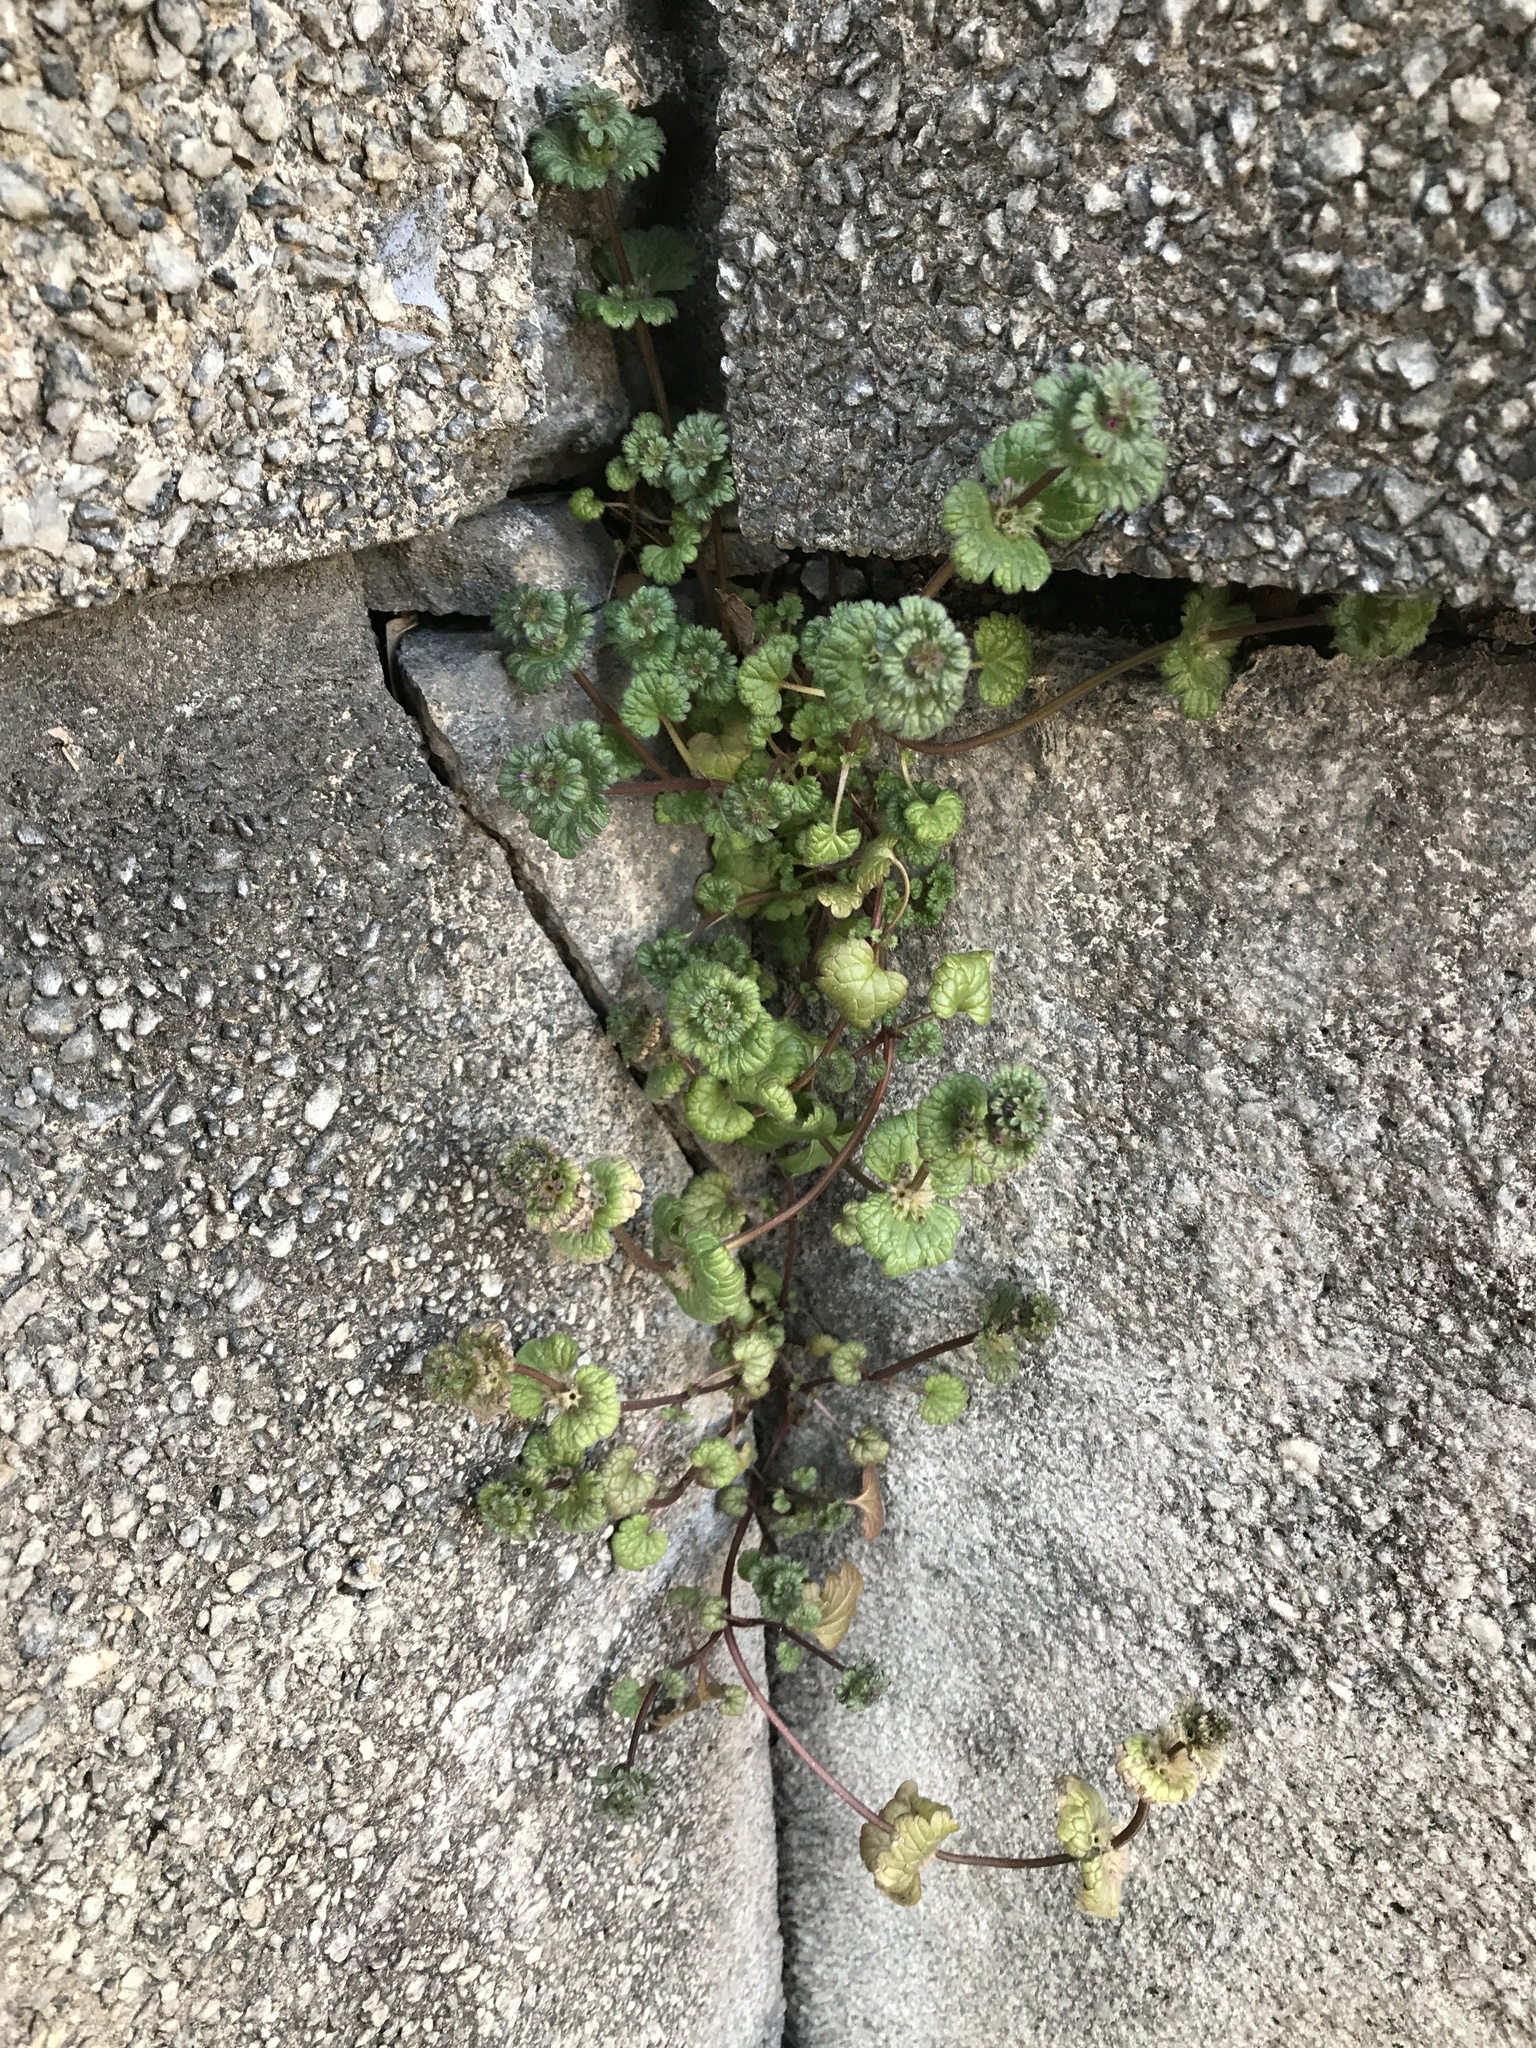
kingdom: Plantae
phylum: Tracheophyta
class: Magnoliopsida
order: Lamiales
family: Lamiaceae
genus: Lamium
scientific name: Lamium amplexicaule
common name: Henbit dead-nettle
